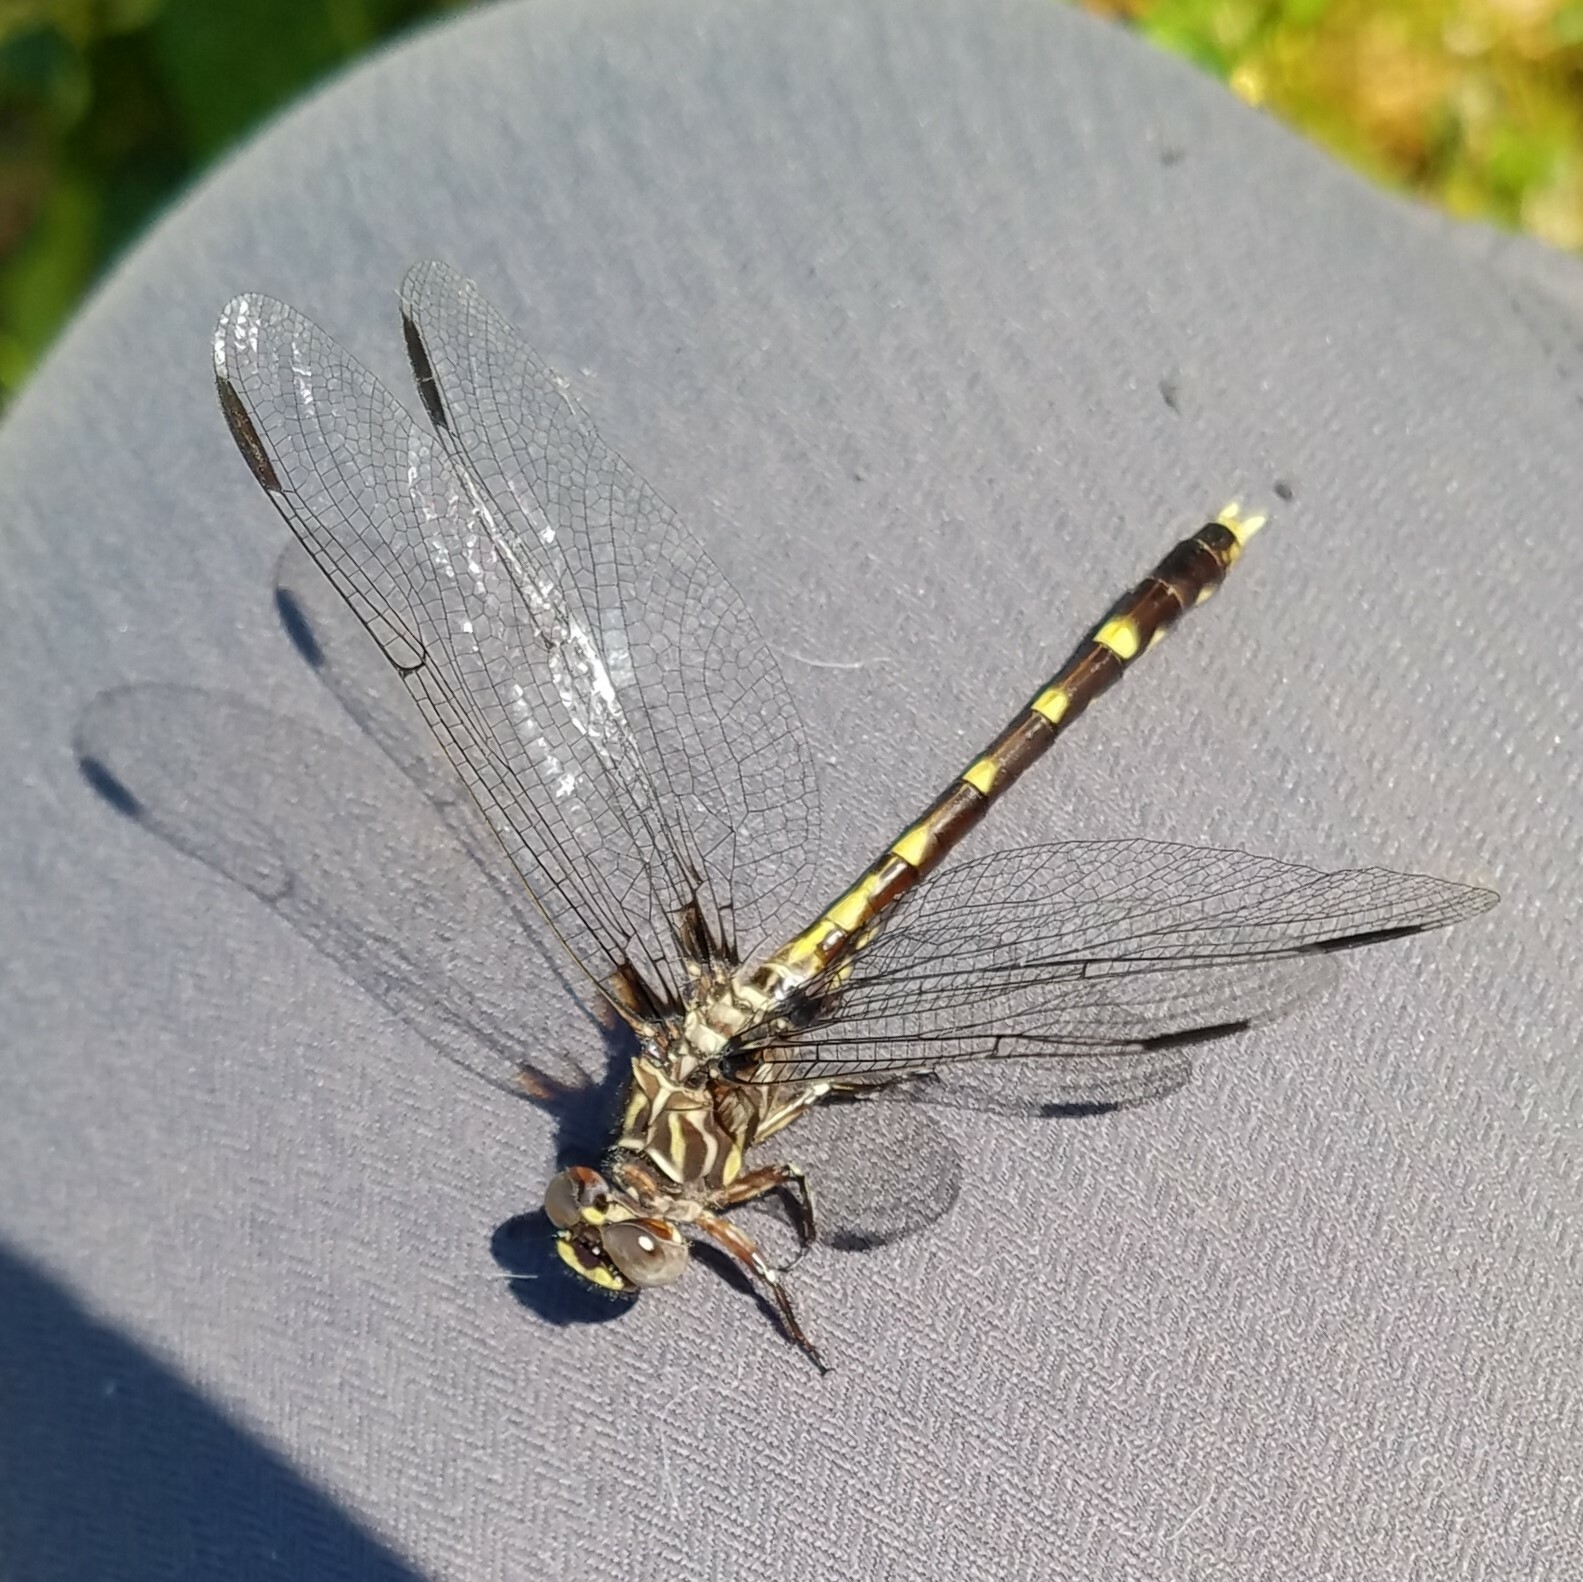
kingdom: Animalia
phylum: Arthropoda
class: Insecta
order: Odonata
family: Gomphidae
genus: Progomphus
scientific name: Progomphus obscurus
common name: Common sanddragon
